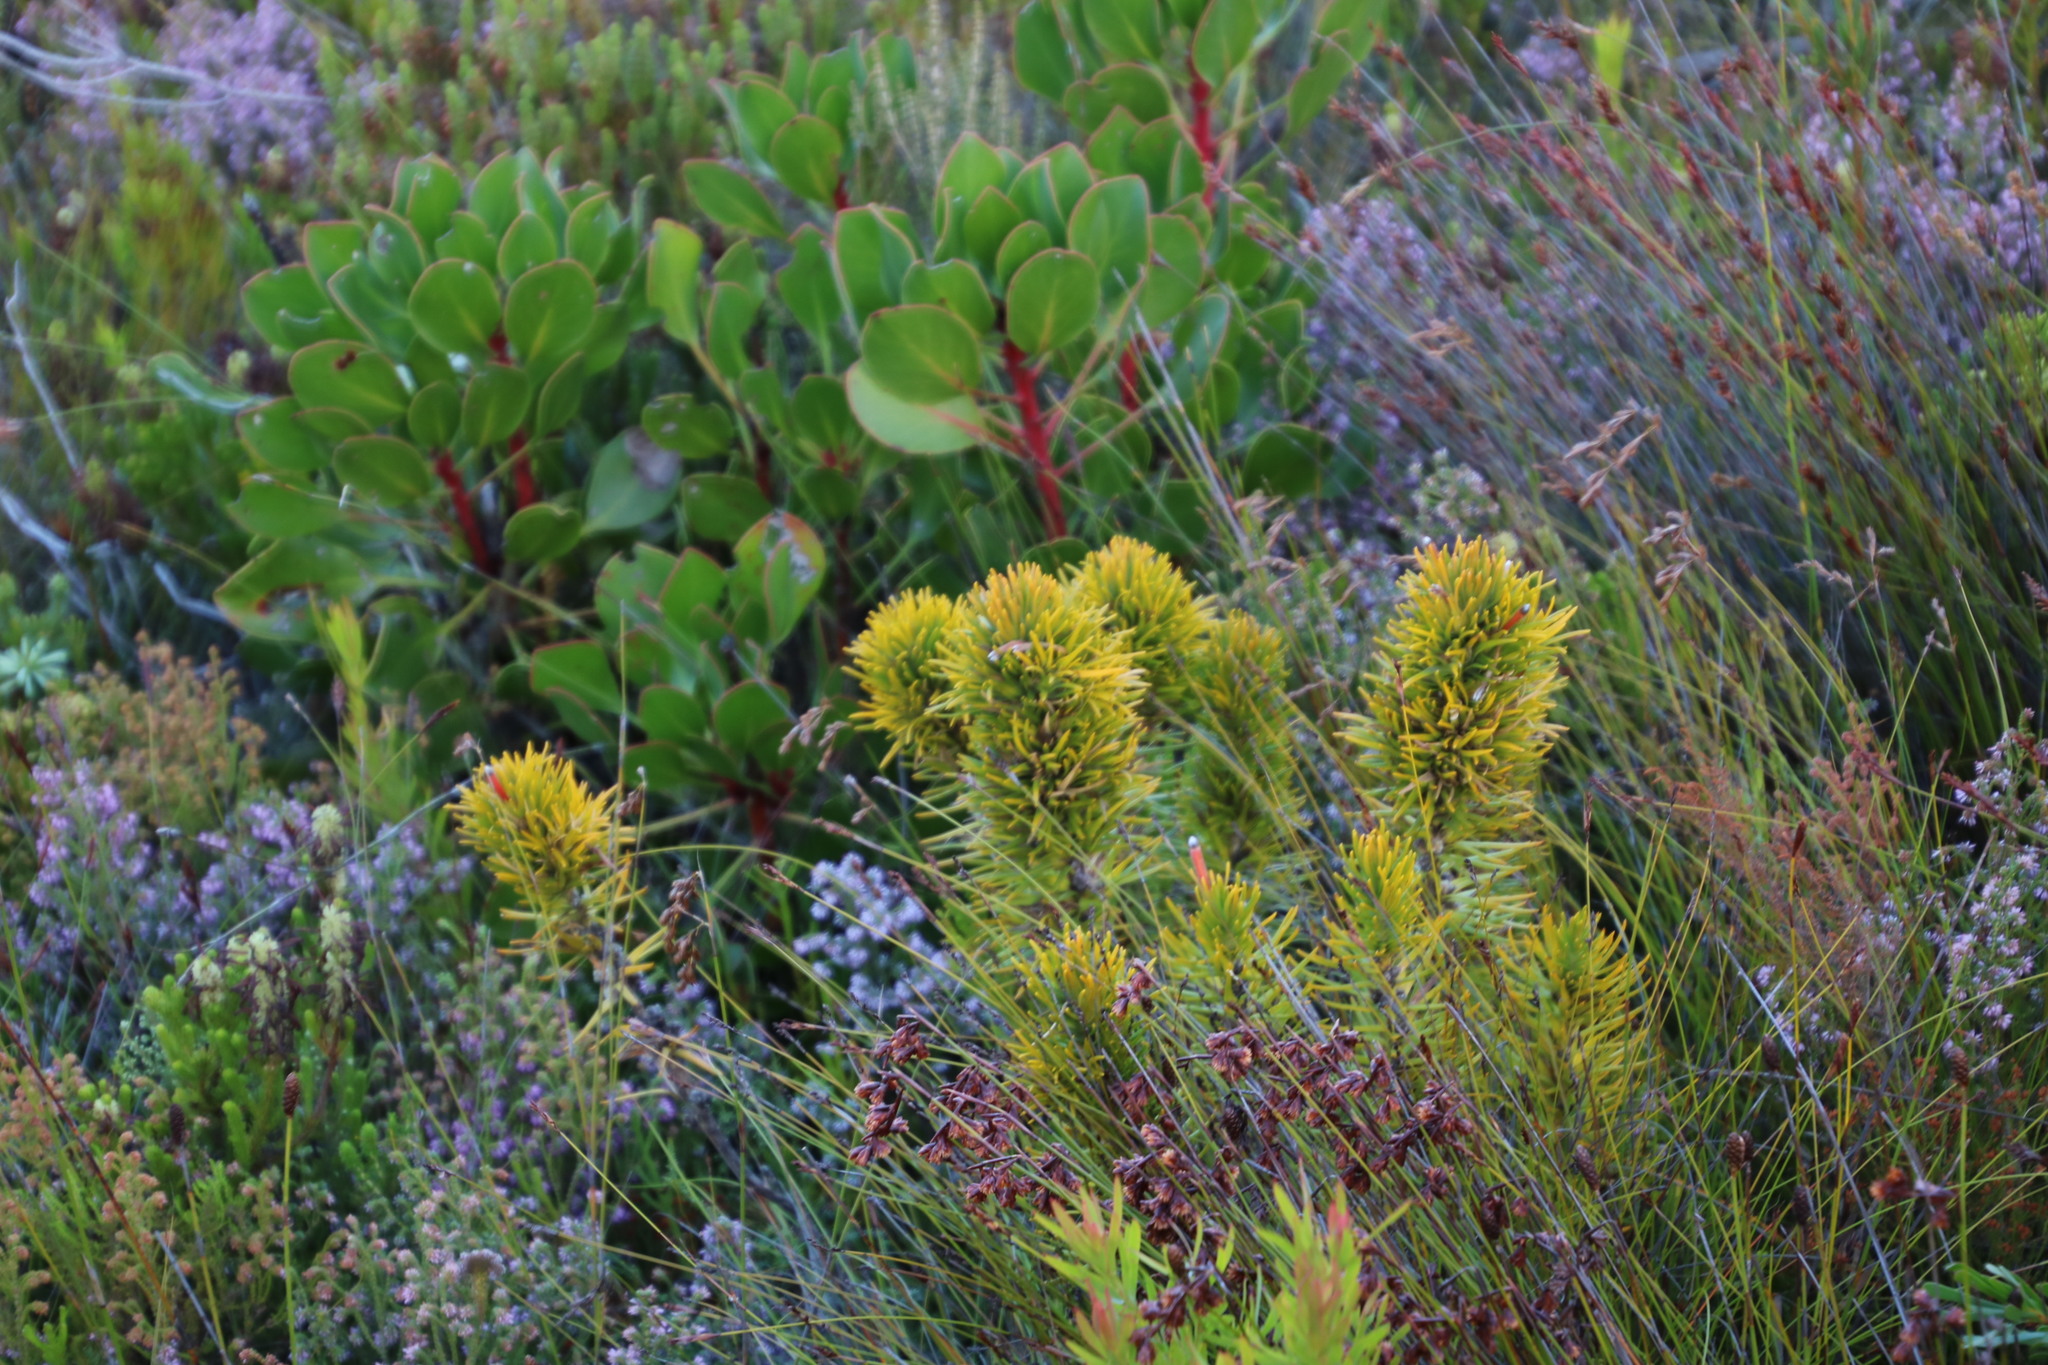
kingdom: Plantae
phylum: Tracheophyta
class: Magnoliopsida
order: Lamiales
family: Stilbaceae
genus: Retzia
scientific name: Retzia capensis
